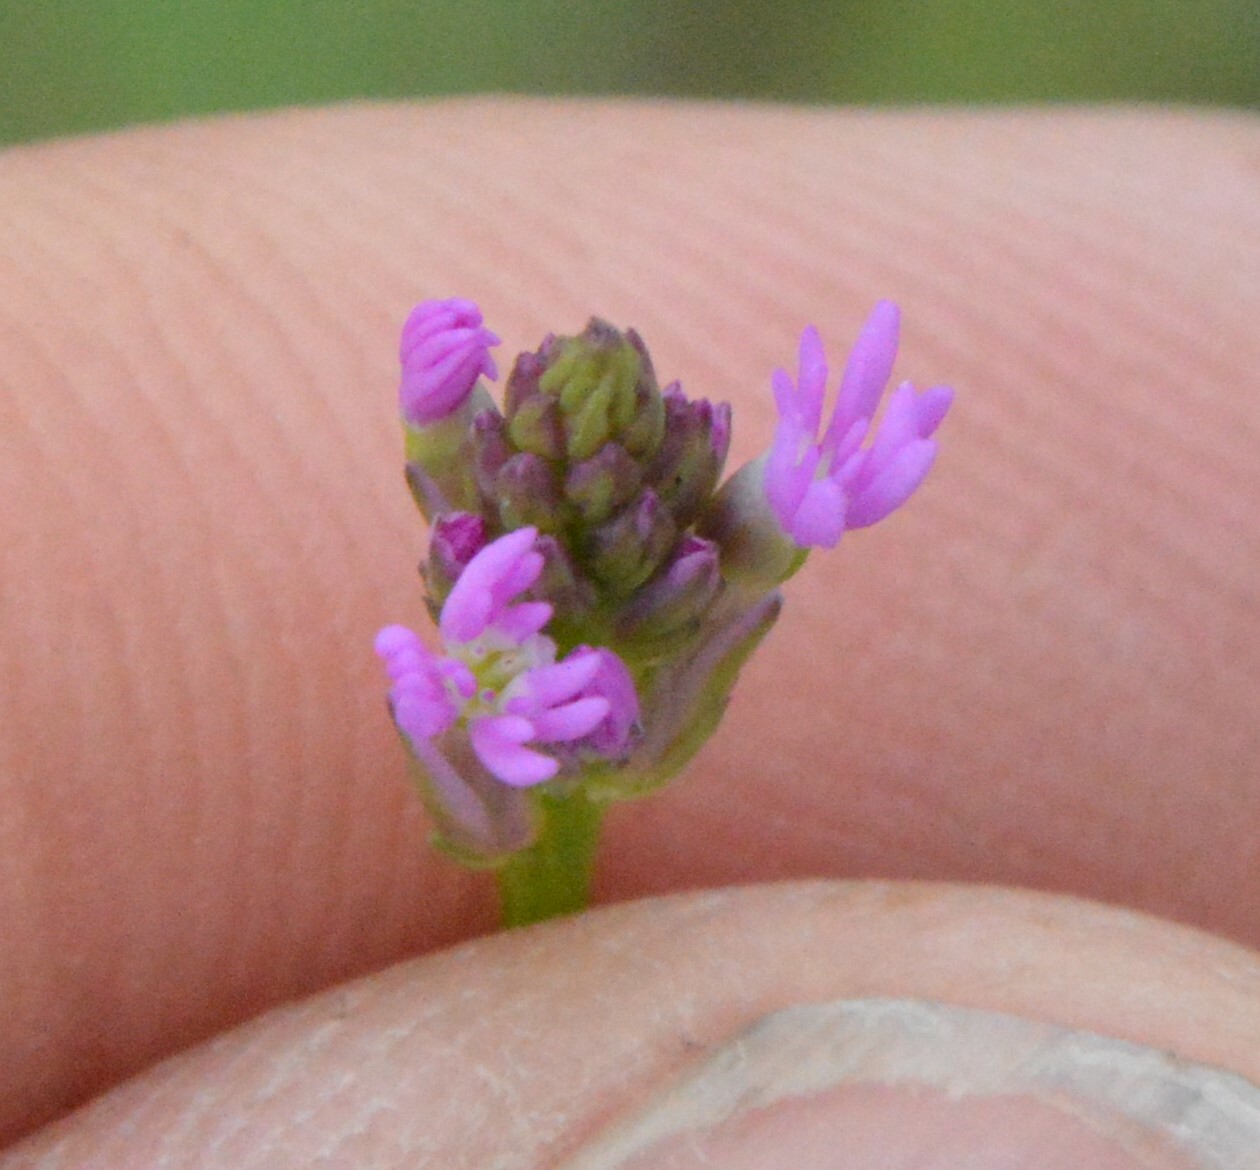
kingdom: Plantae
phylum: Tracheophyta
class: Magnoliopsida
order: Fabales
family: Polygalaceae
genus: Polygala
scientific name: Polygala incarnata
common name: Pink milkwort
